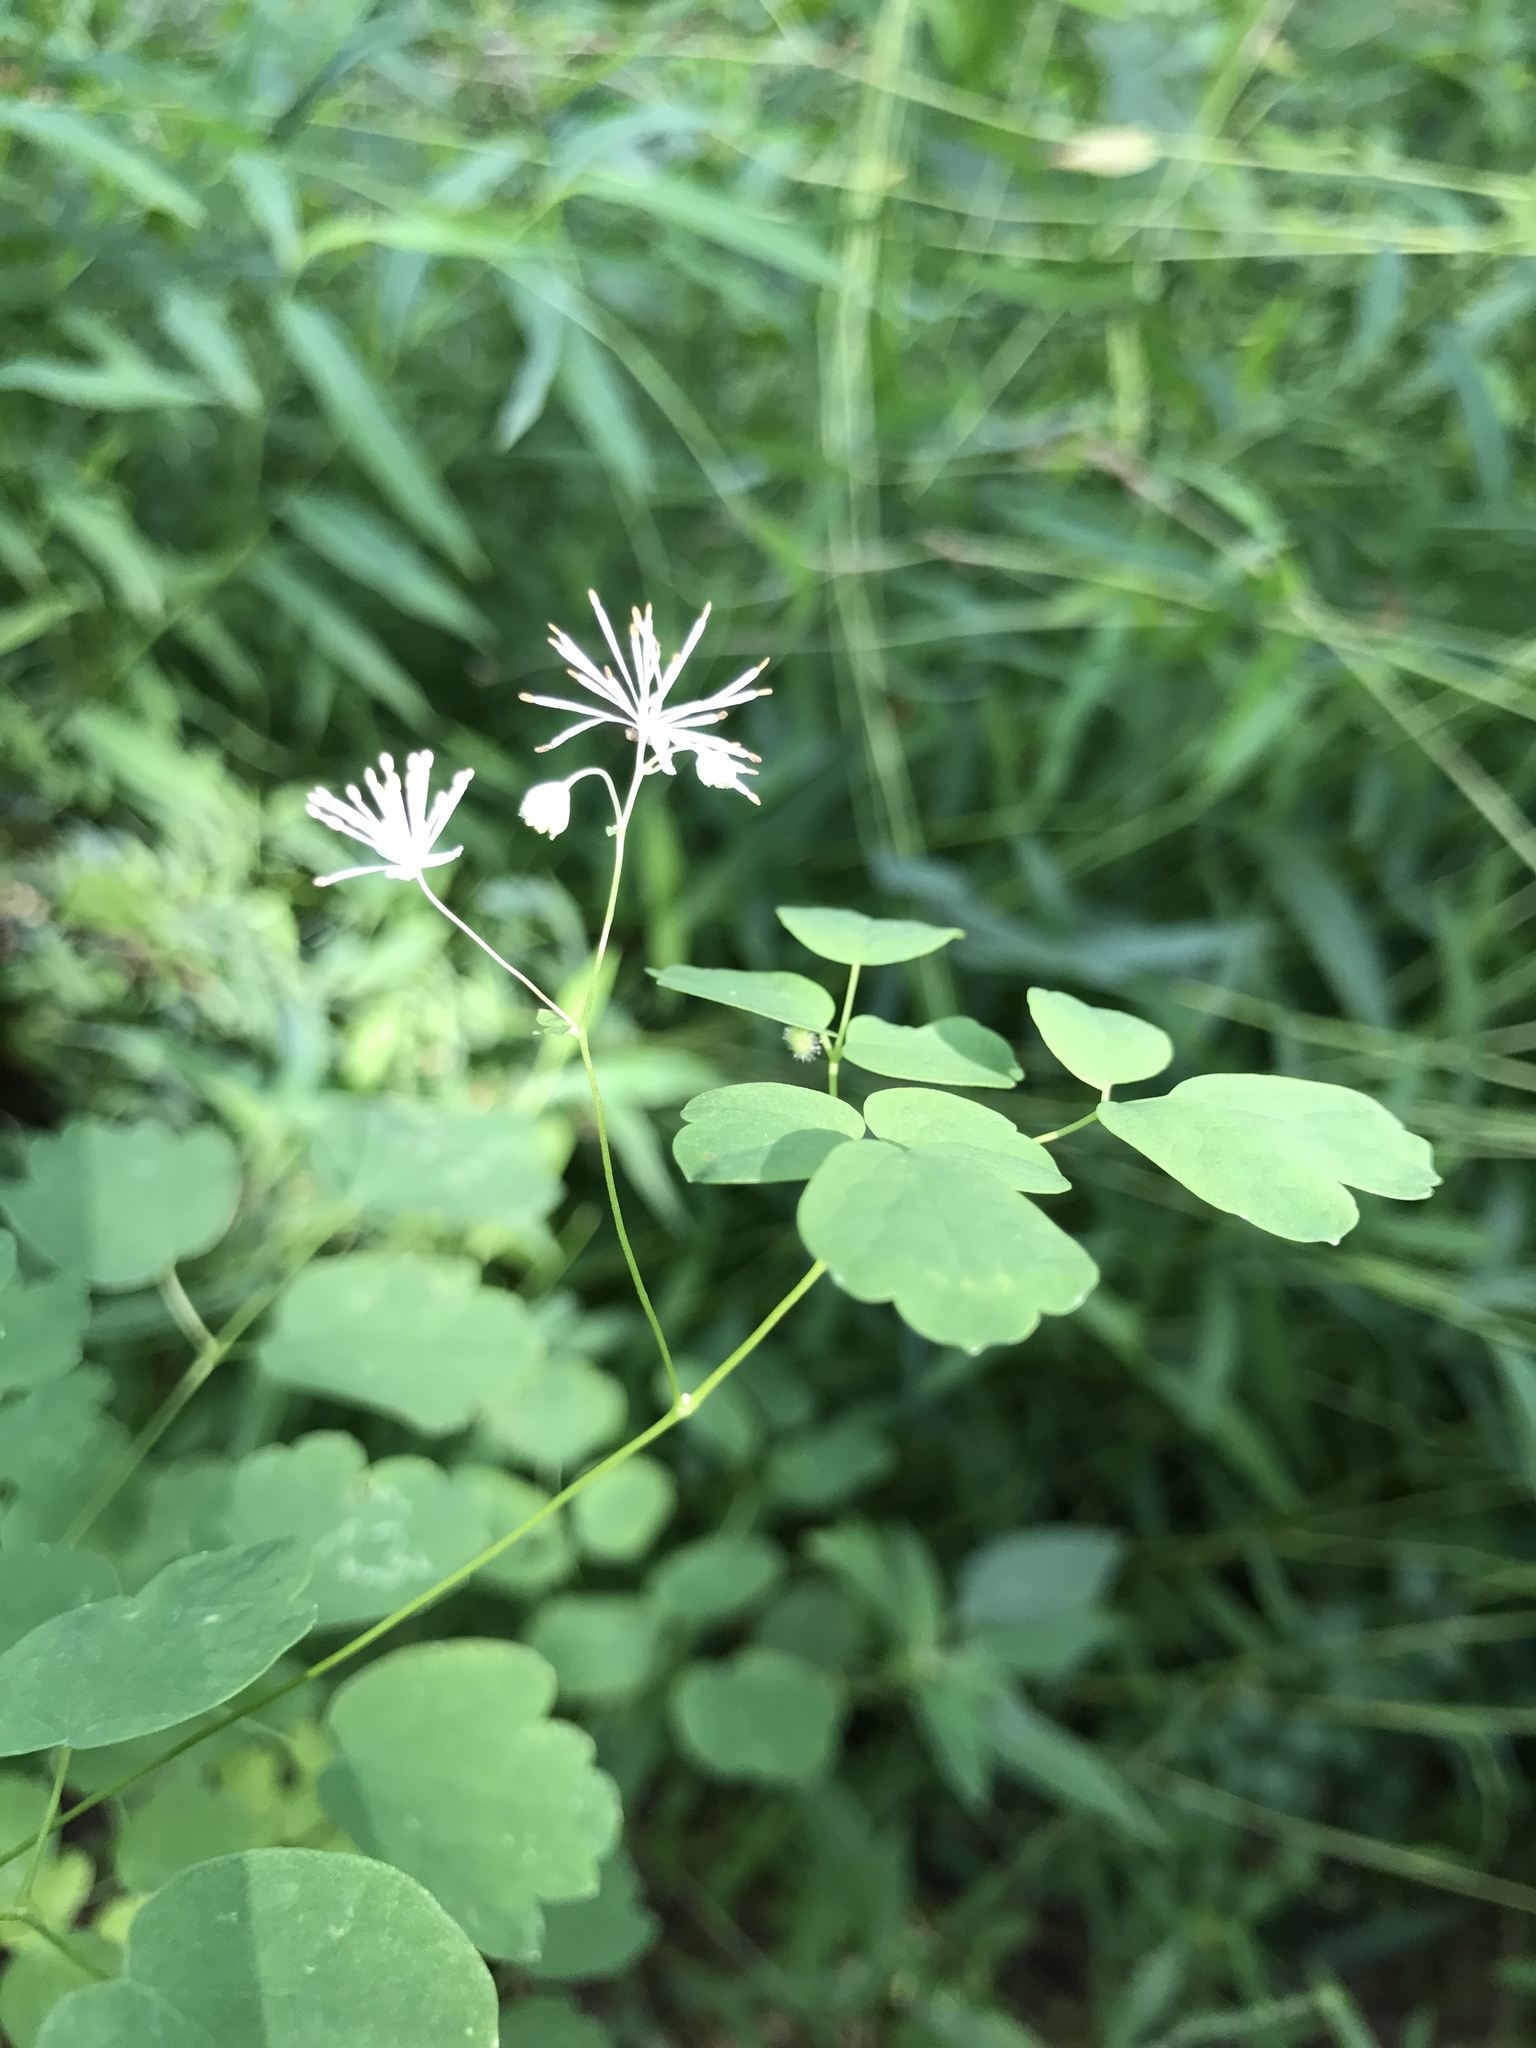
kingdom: Plantae
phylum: Tracheophyta
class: Magnoliopsida
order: Ranunculales
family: Ranunculaceae
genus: Thalictrum
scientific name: Thalictrum pubescens
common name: King-of-the-meadow
